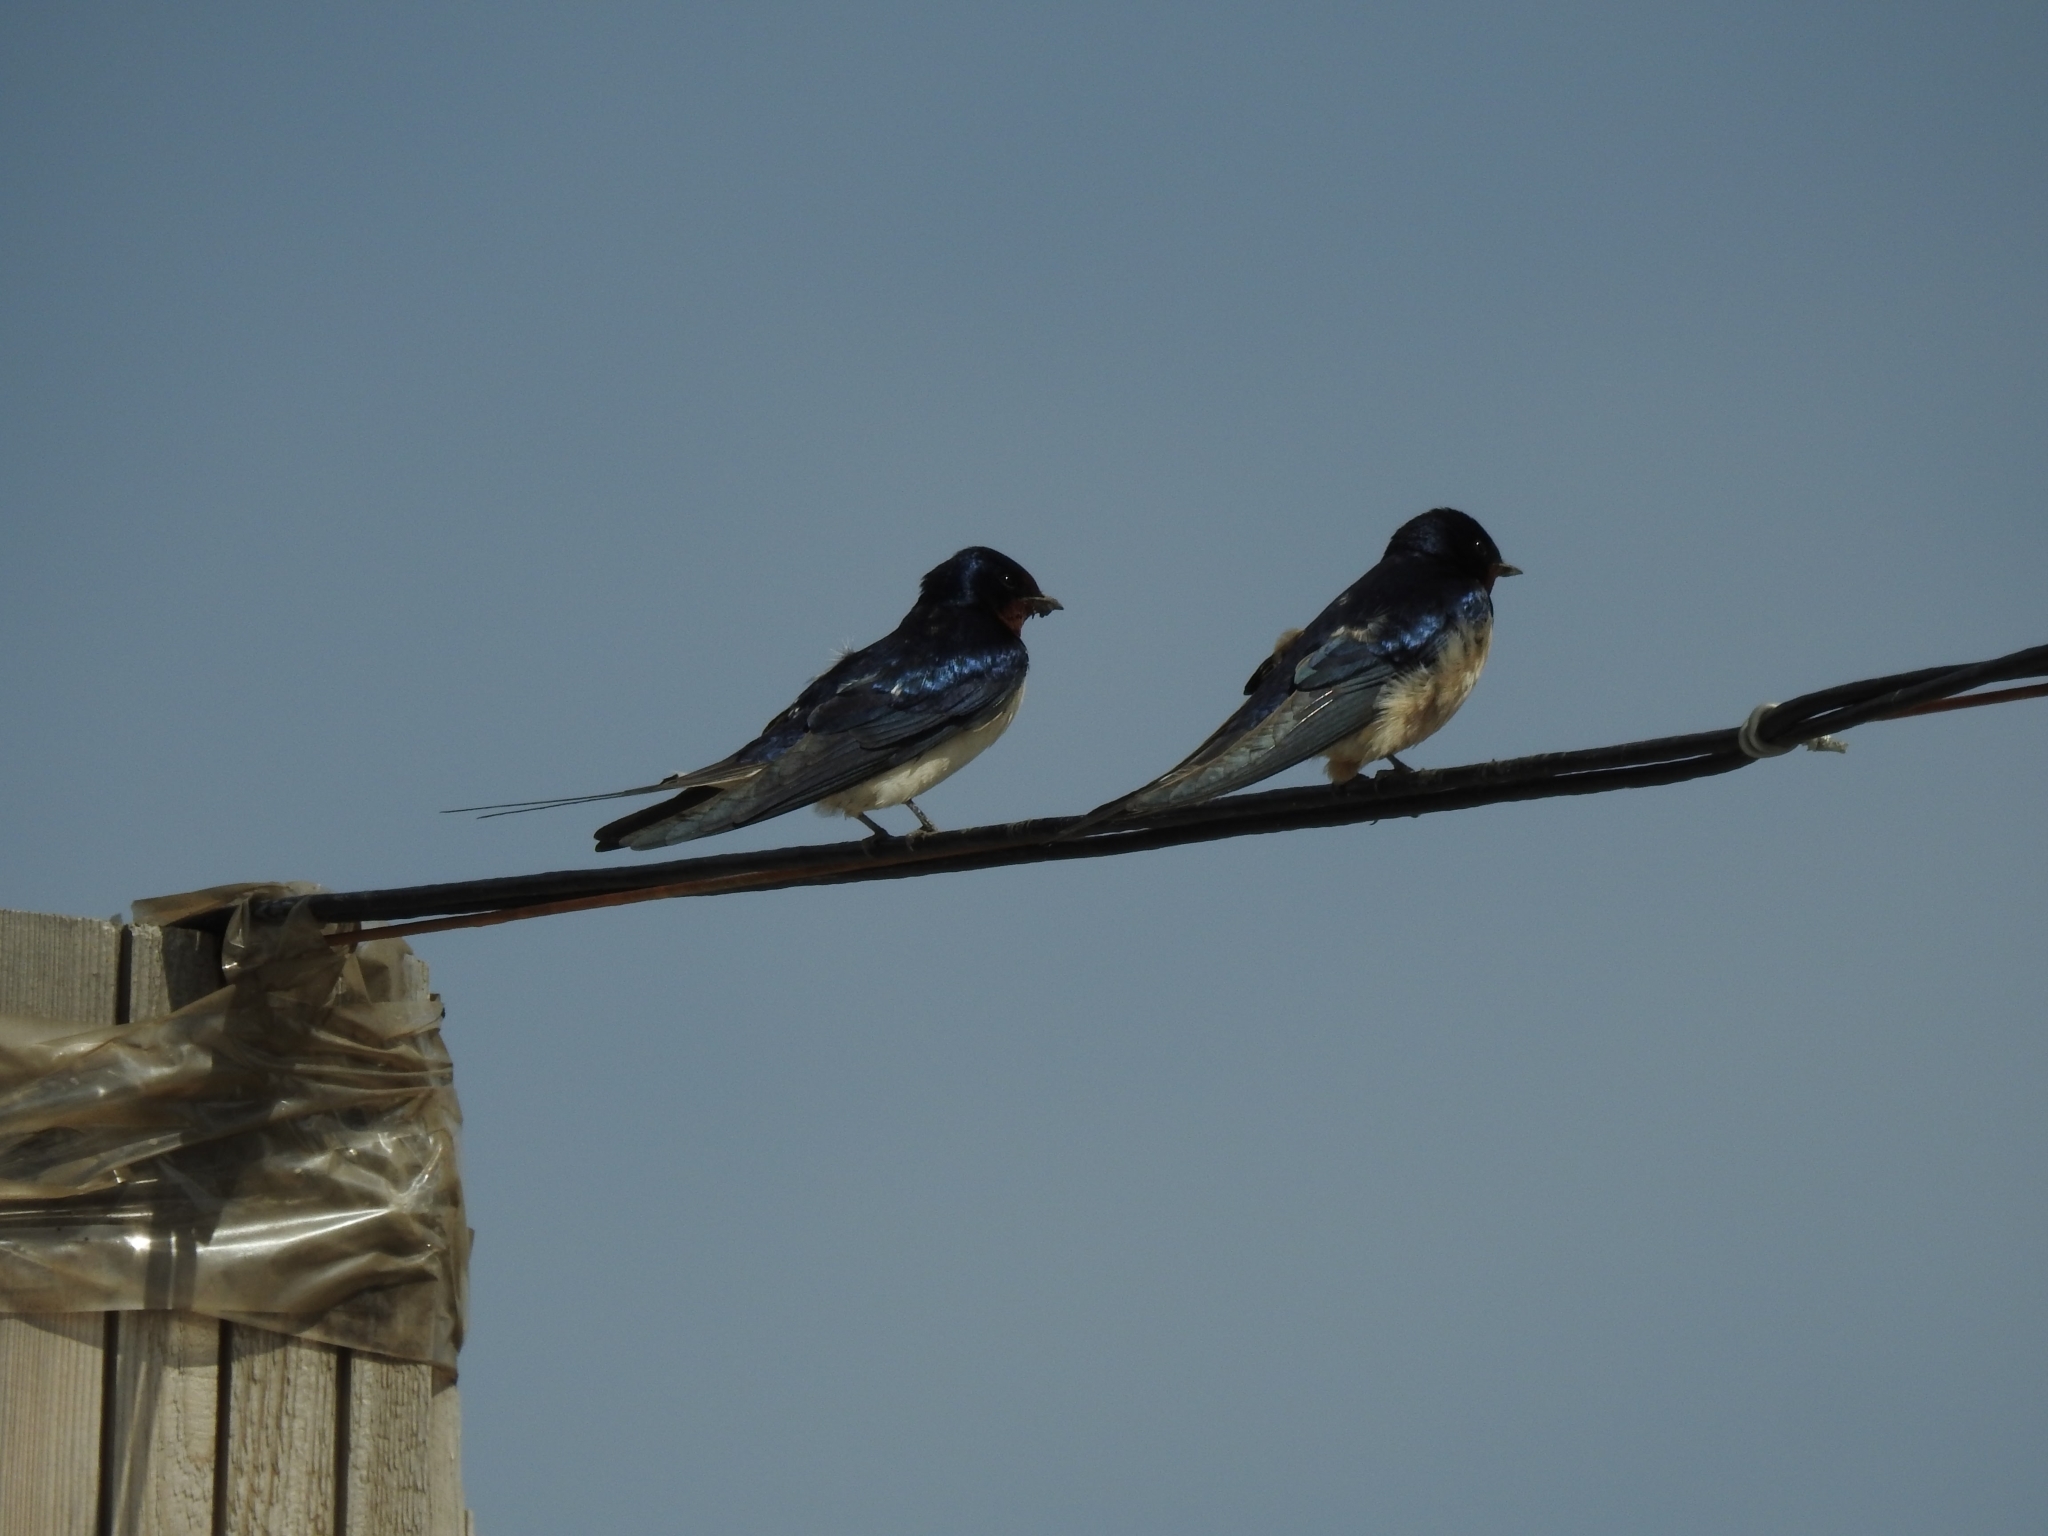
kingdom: Animalia
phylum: Chordata
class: Aves
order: Passeriformes
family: Hirundinidae
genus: Hirundo
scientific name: Hirundo rustica
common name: Barn swallow
